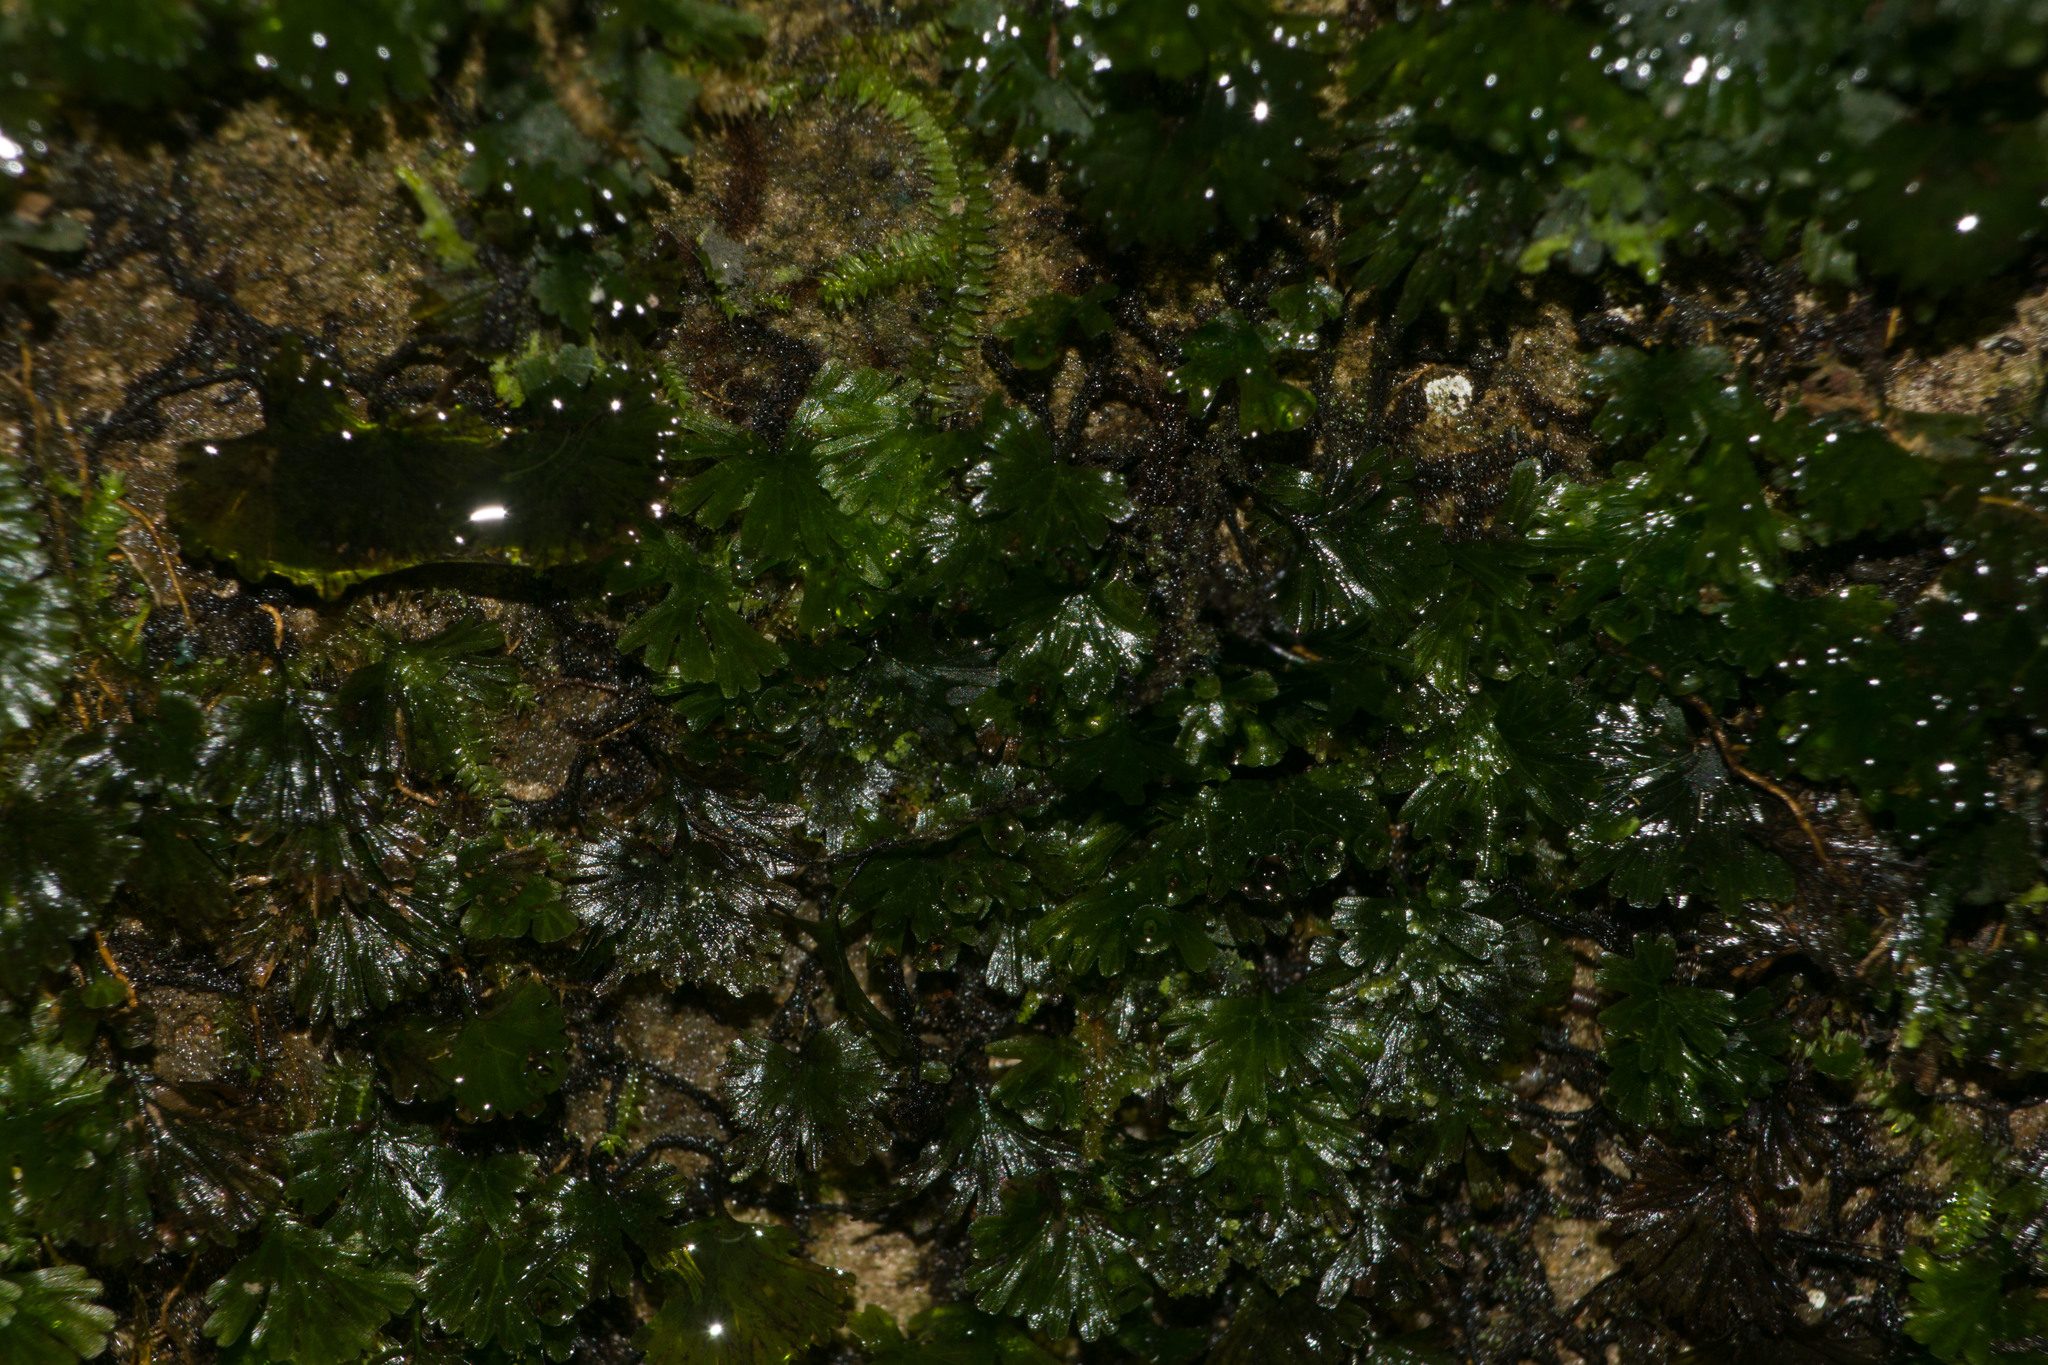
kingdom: Plantae
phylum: Tracheophyta
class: Polypodiopsida
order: Hymenophyllales
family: Hymenophyllaceae
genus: Crepidomanes
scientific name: Crepidomanes parvulum
